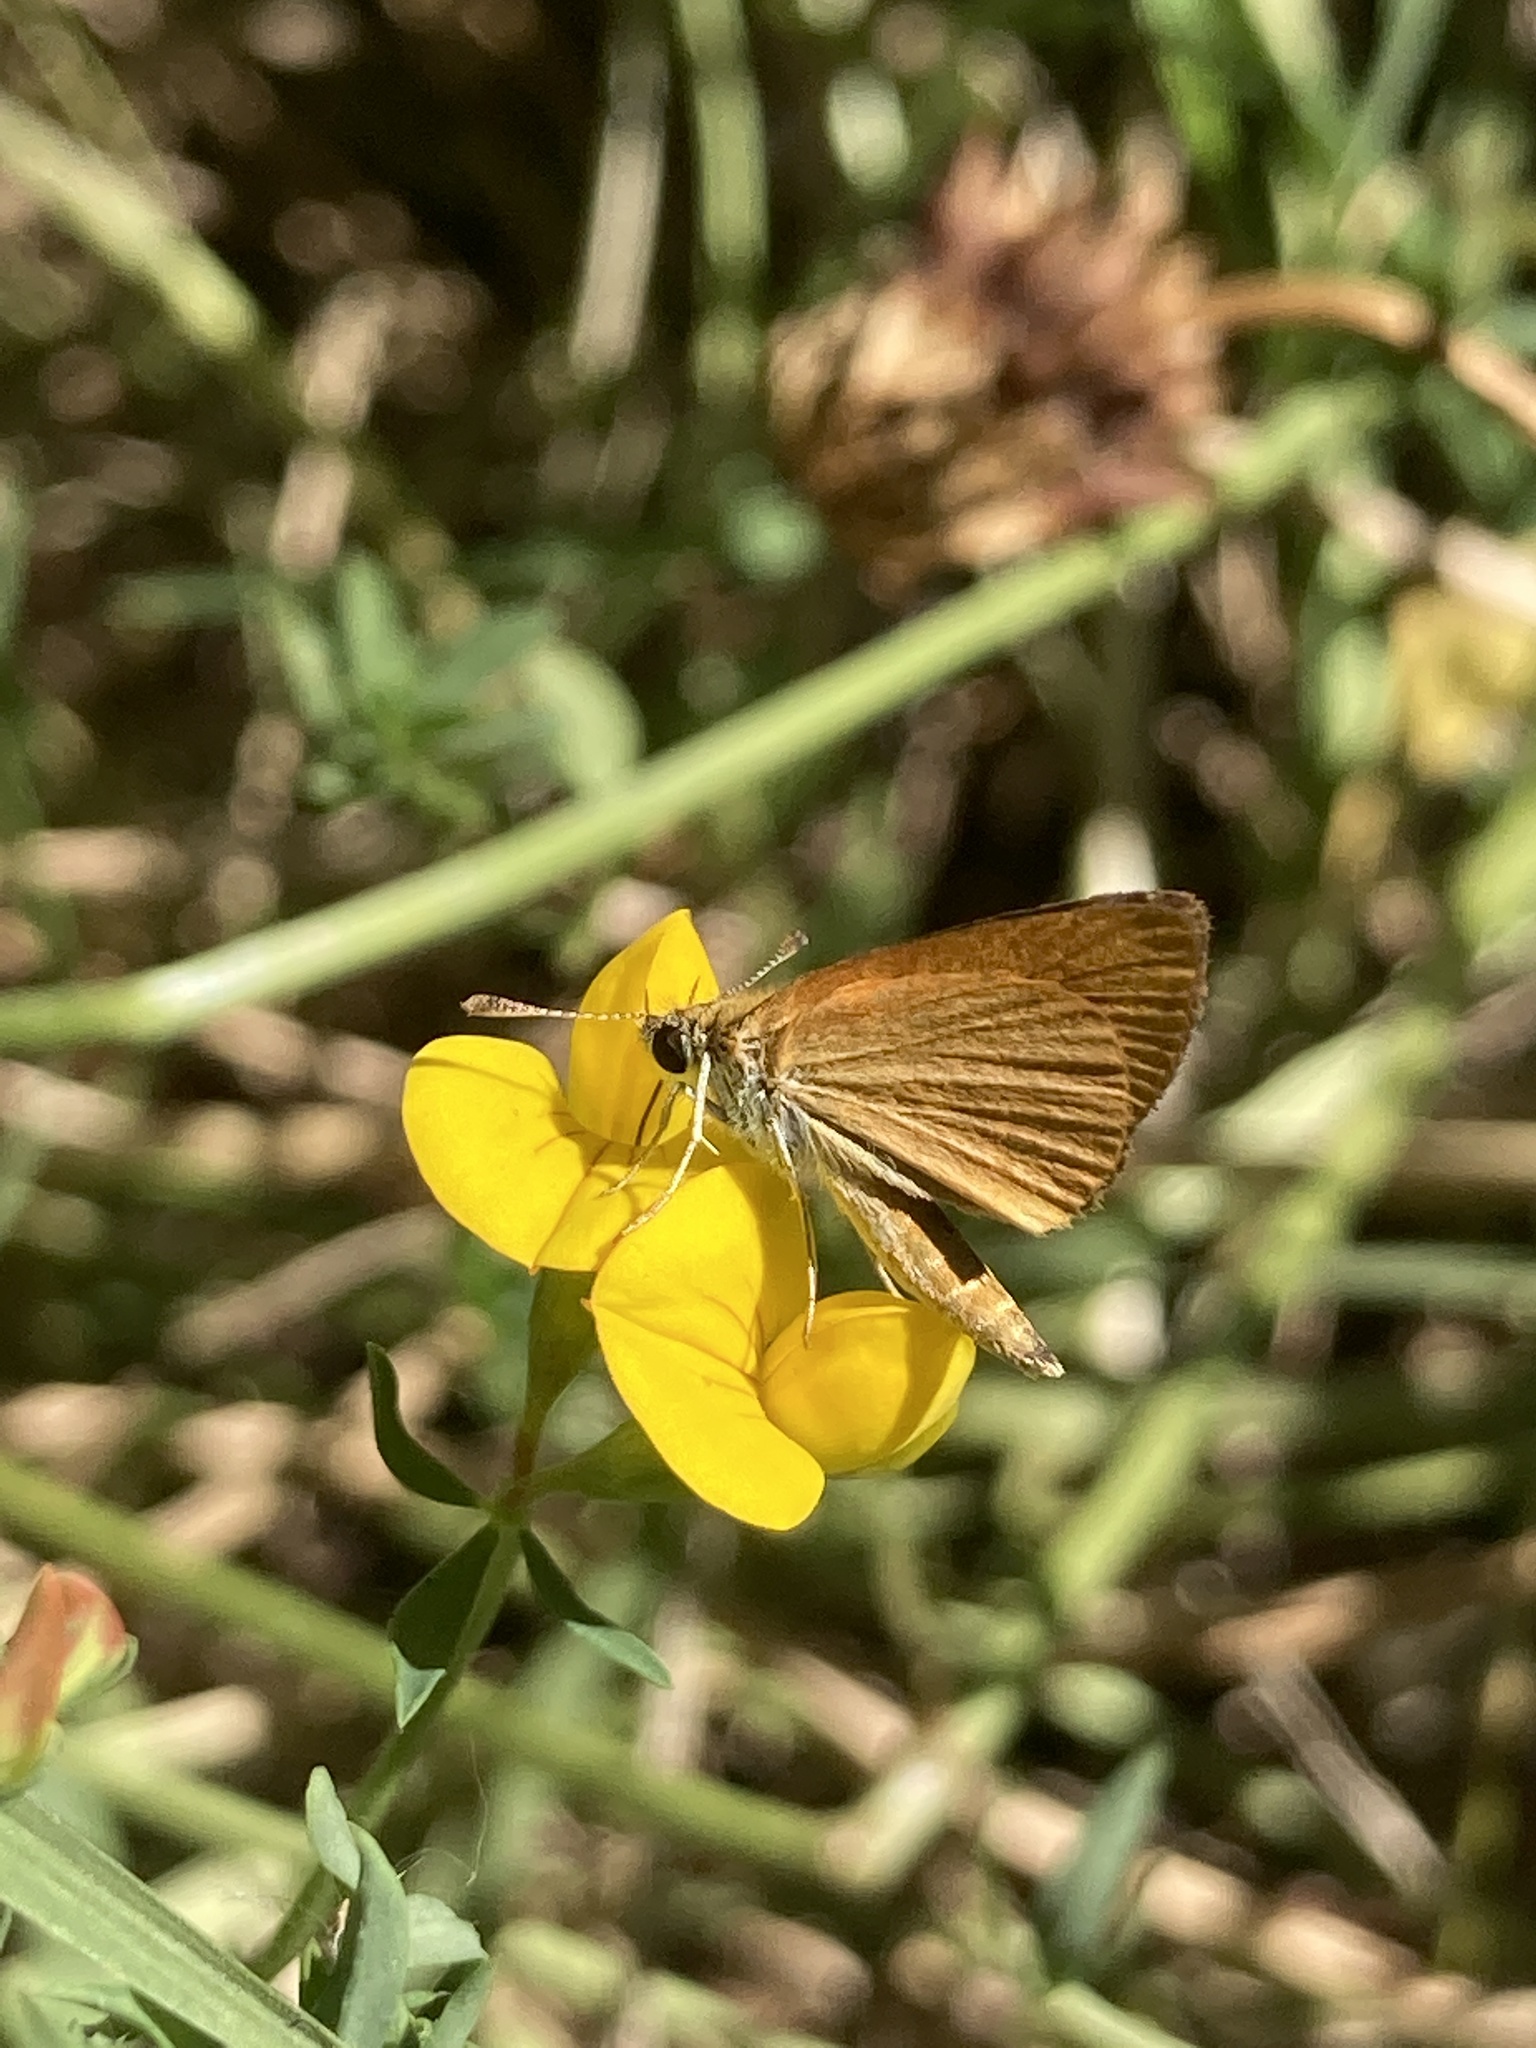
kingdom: Animalia
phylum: Arthropoda
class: Insecta
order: Lepidoptera
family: Hesperiidae
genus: Ancyloxypha
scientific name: Ancyloxypha nitedula
